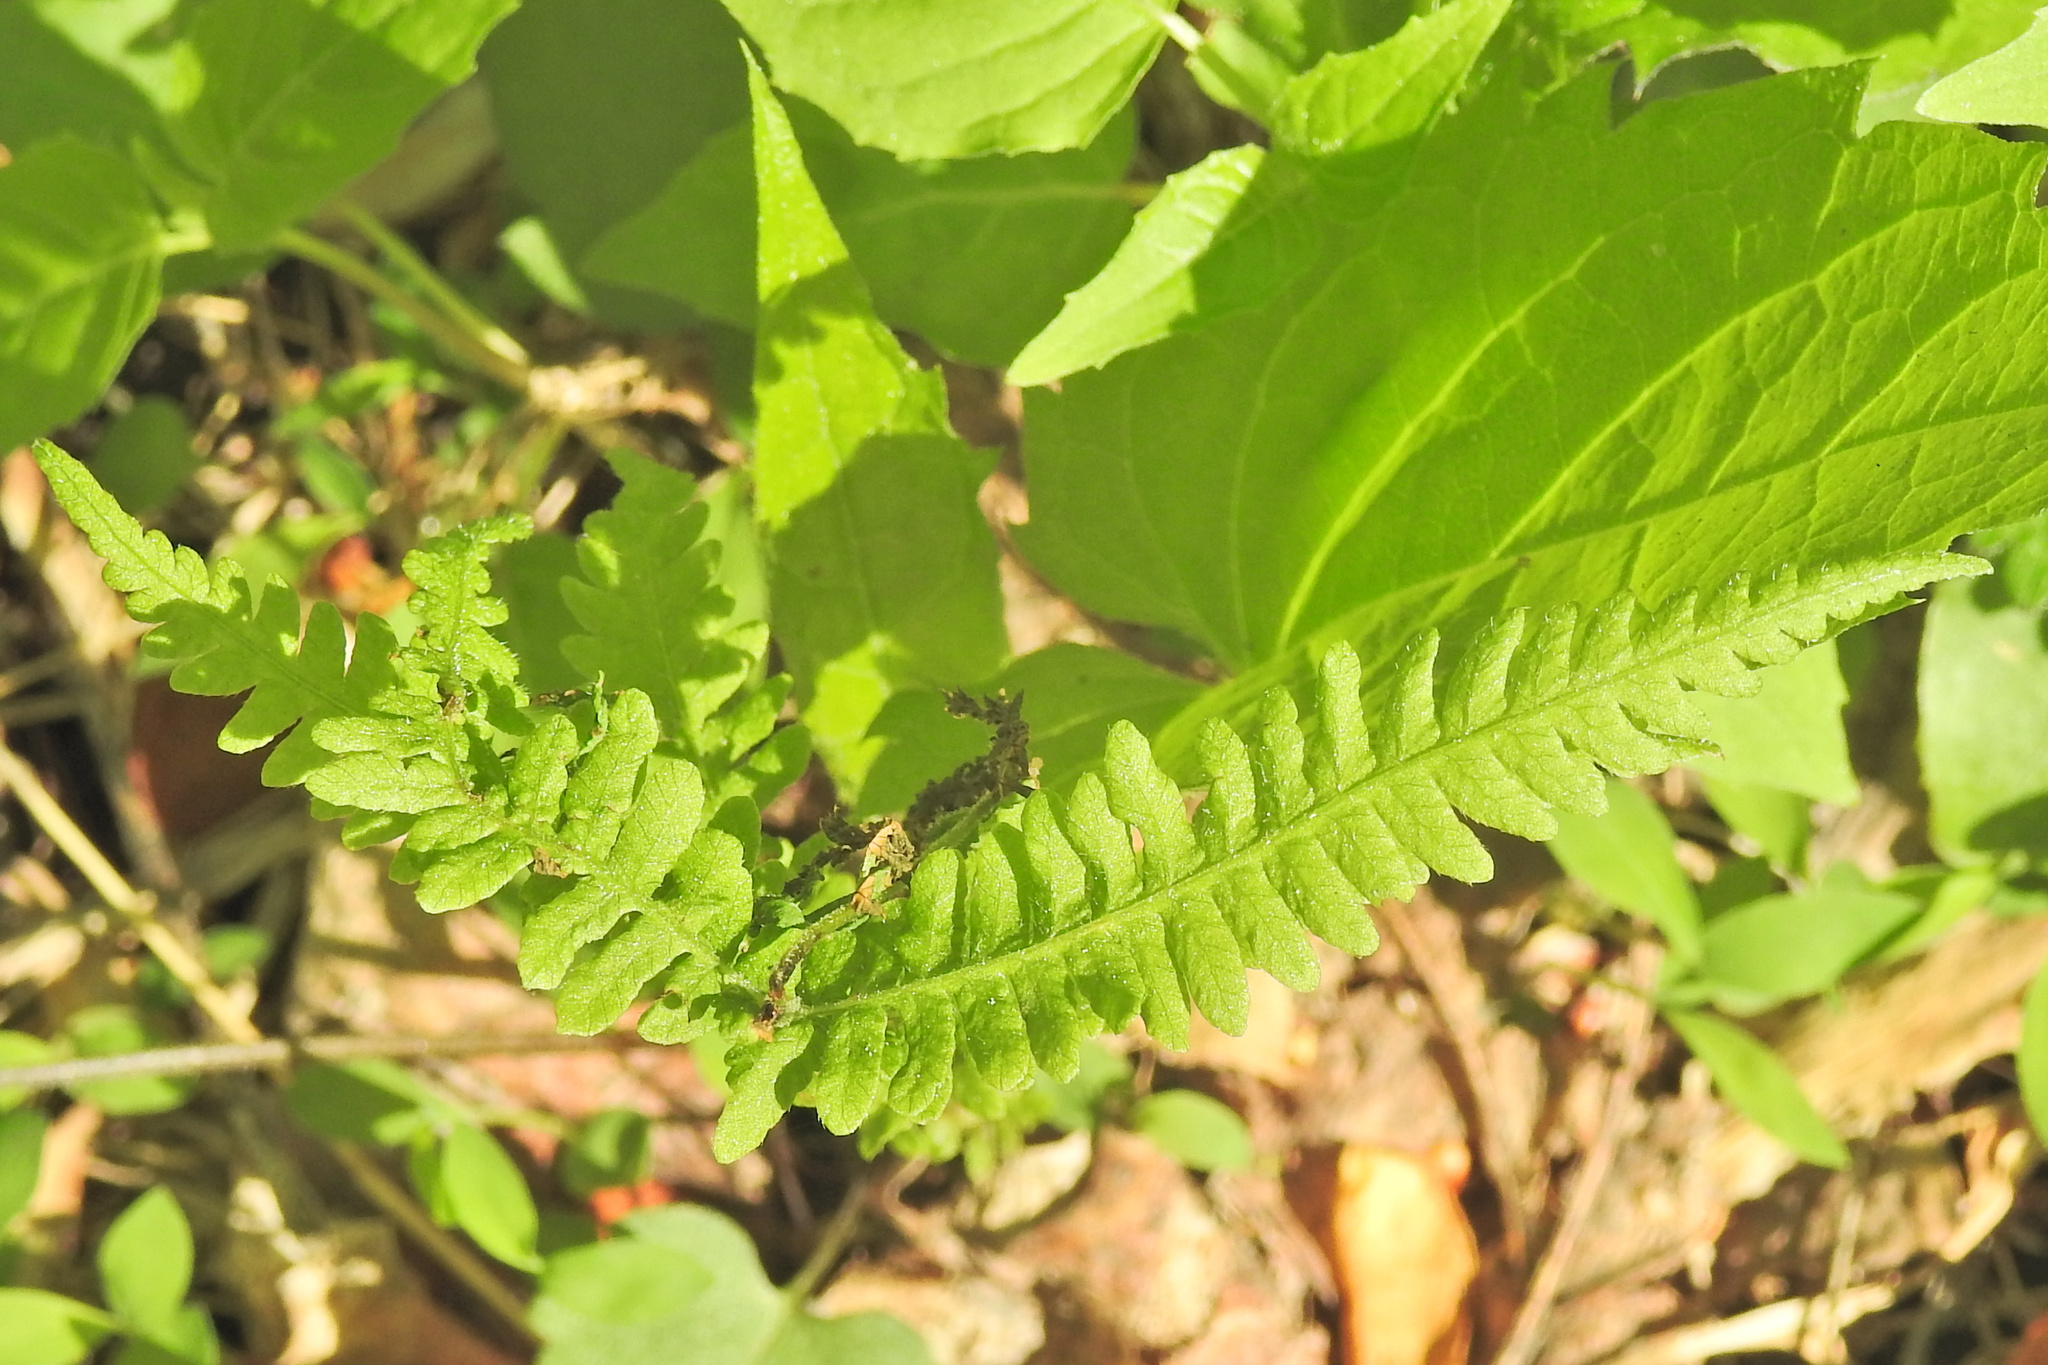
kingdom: Plantae
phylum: Tracheophyta
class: Polypodiopsida
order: Polypodiales
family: Thelypteridaceae
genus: Amauropelta
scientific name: Amauropelta noveboracensis
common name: New york fern
